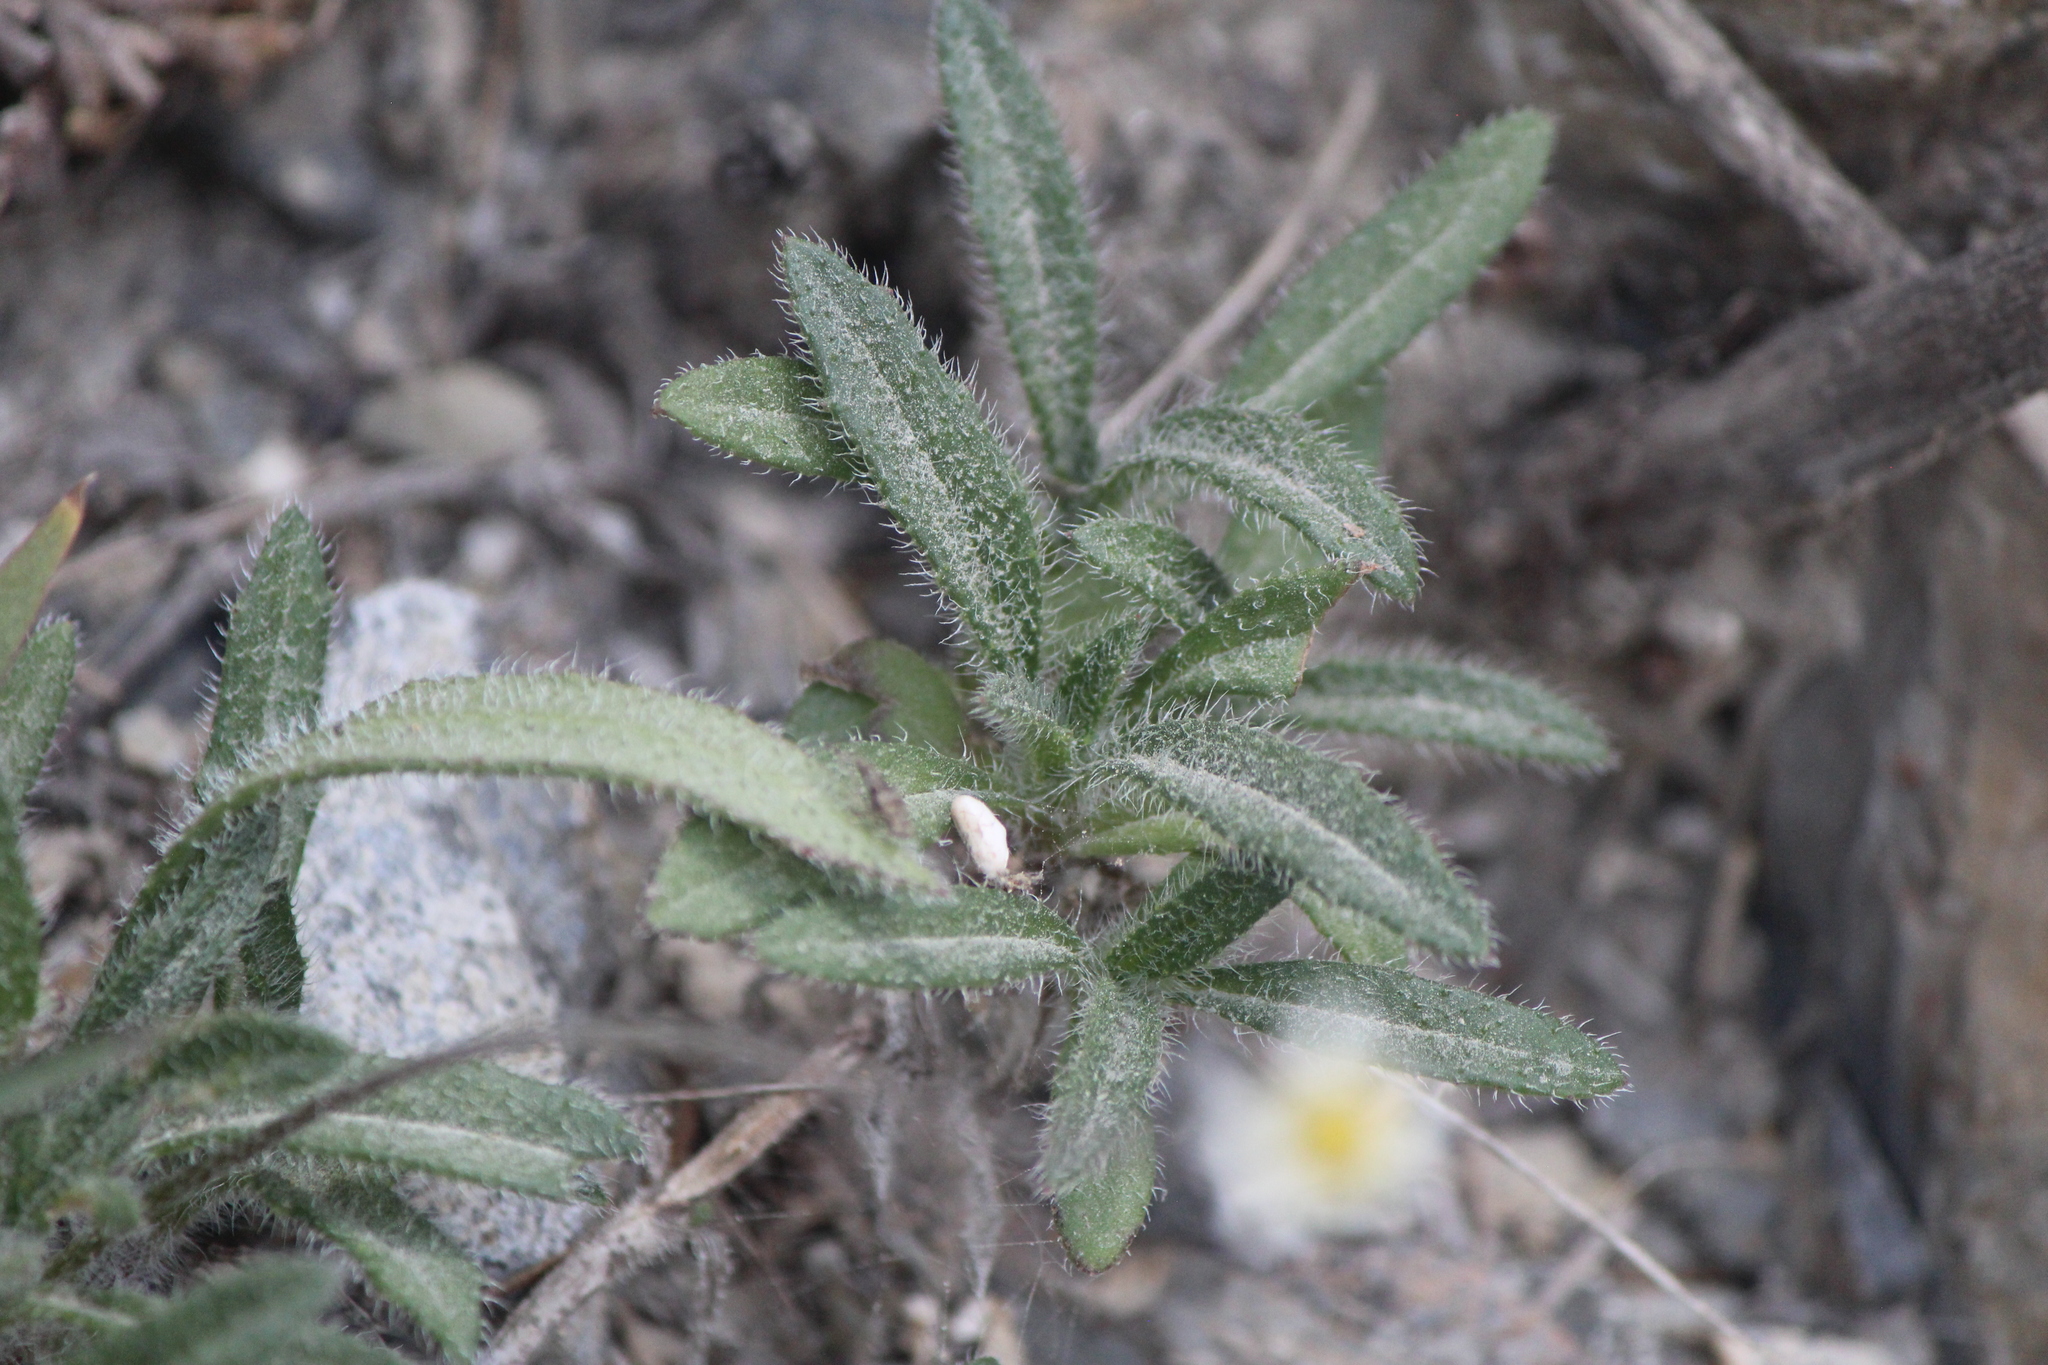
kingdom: Plantae
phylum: Tracheophyta
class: Magnoliopsida
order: Asterales
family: Asteraceae
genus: Tridax
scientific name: Tridax coronopifolia
